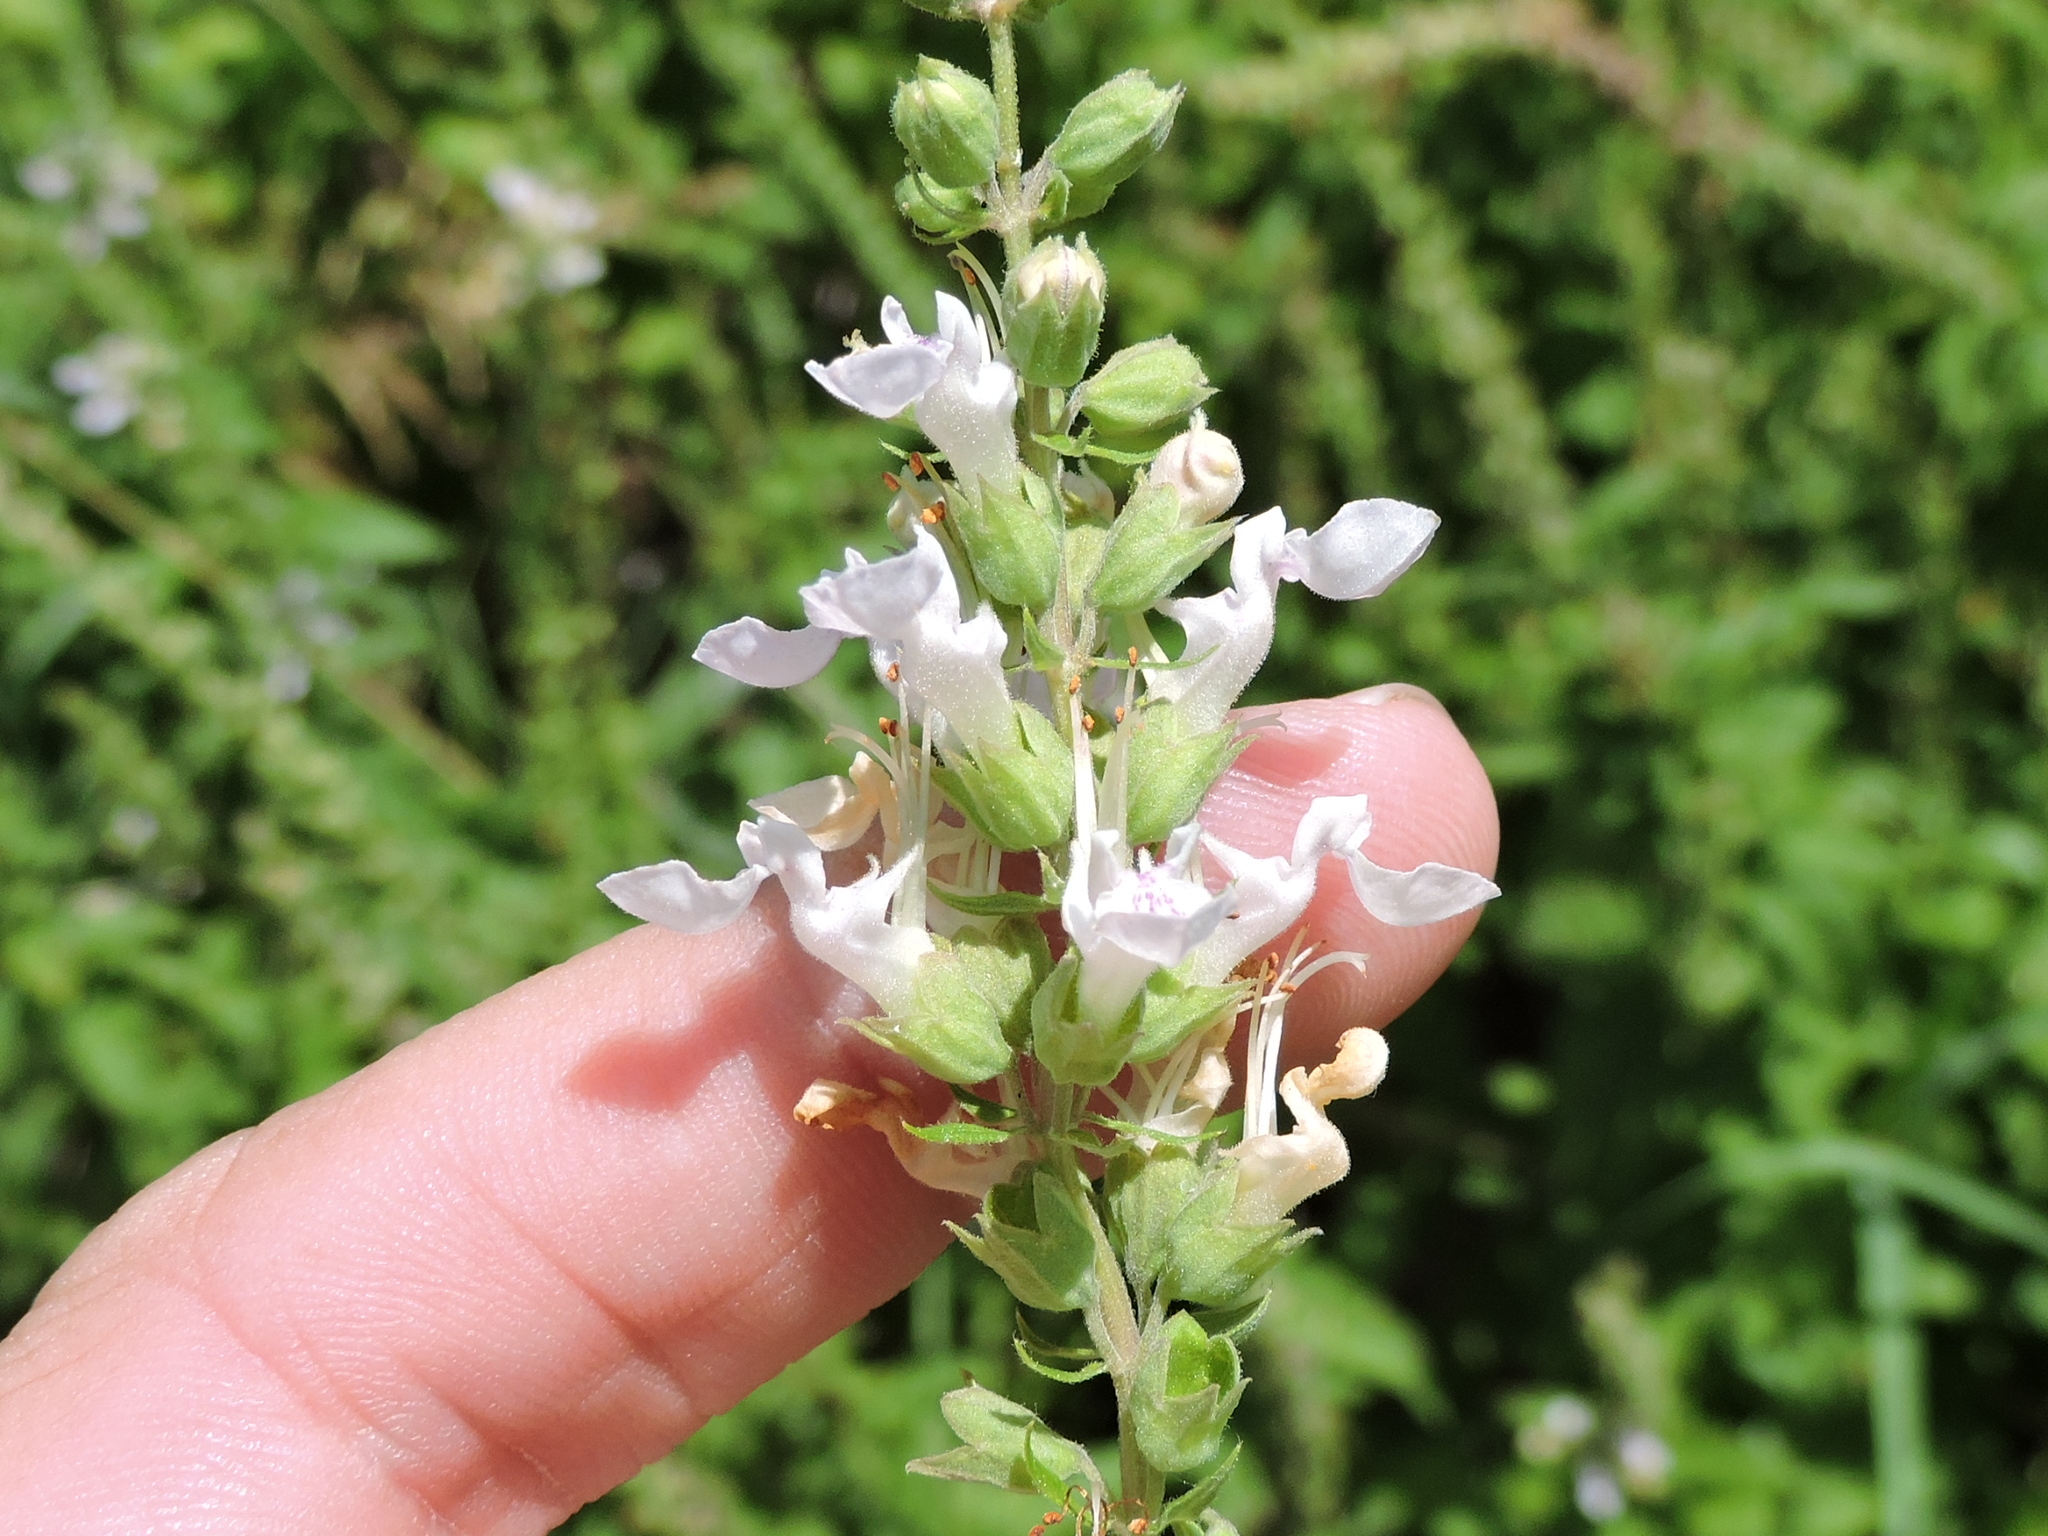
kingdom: Plantae
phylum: Tracheophyta
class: Magnoliopsida
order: Lamiales
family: Lamiaceae
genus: Teucrium
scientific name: Teucrium canadense
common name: American germander
